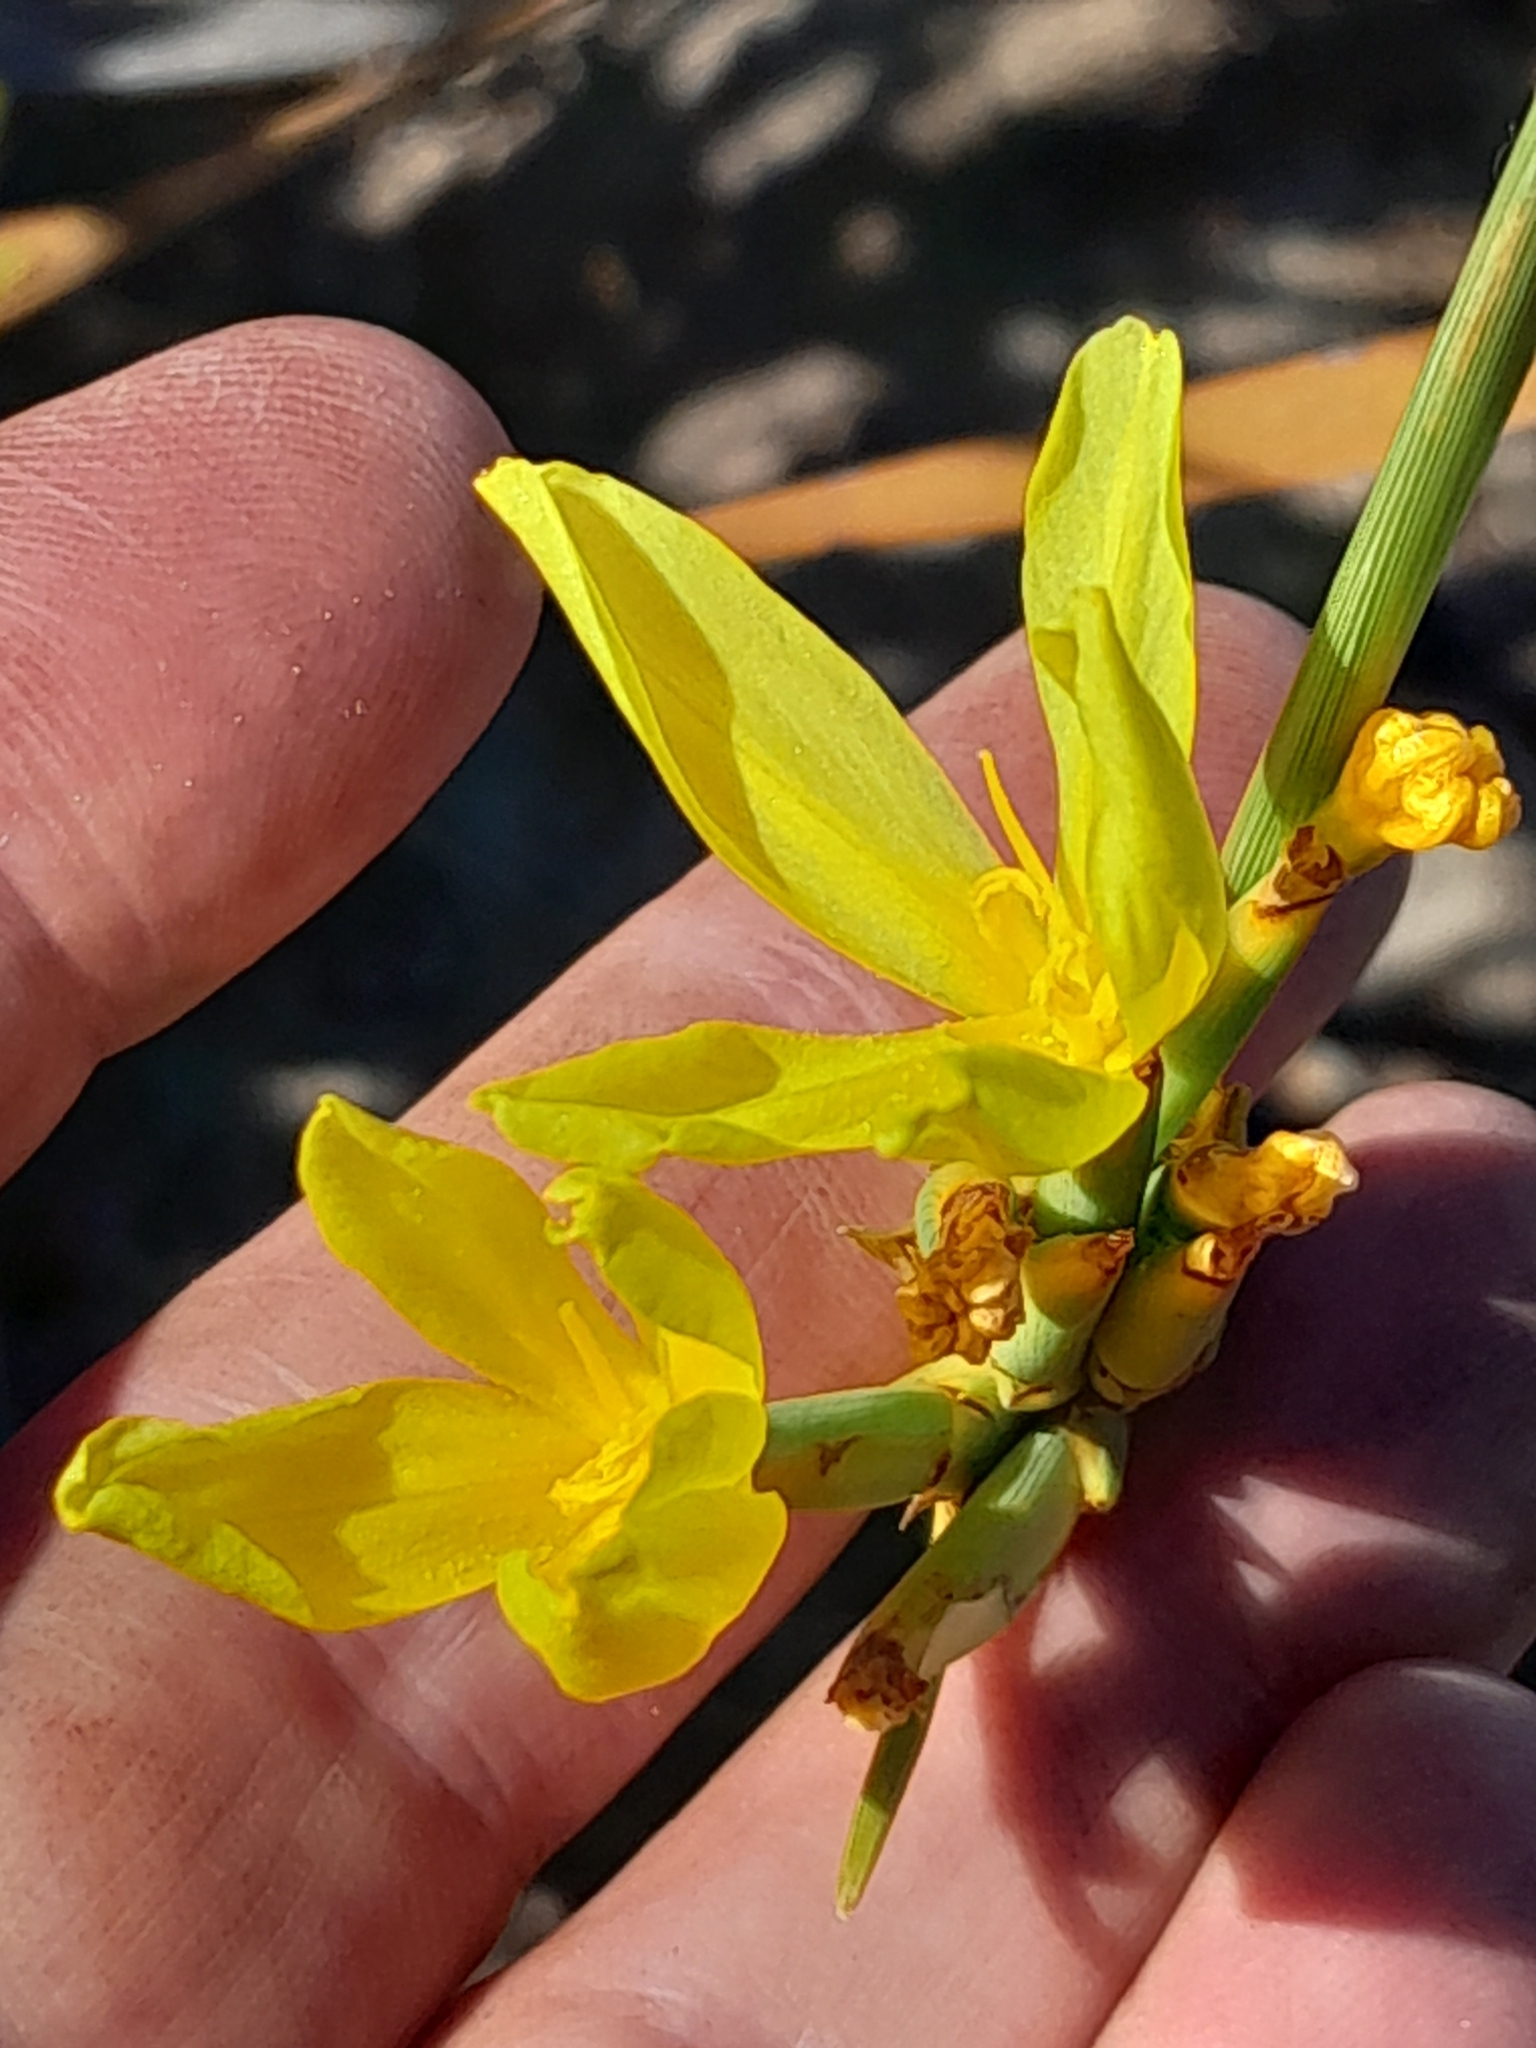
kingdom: Plantae
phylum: Tracheophyta
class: Liliopsida
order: Asparagales
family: Iridaceae
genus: Bobartia
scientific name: Bobartia indica
